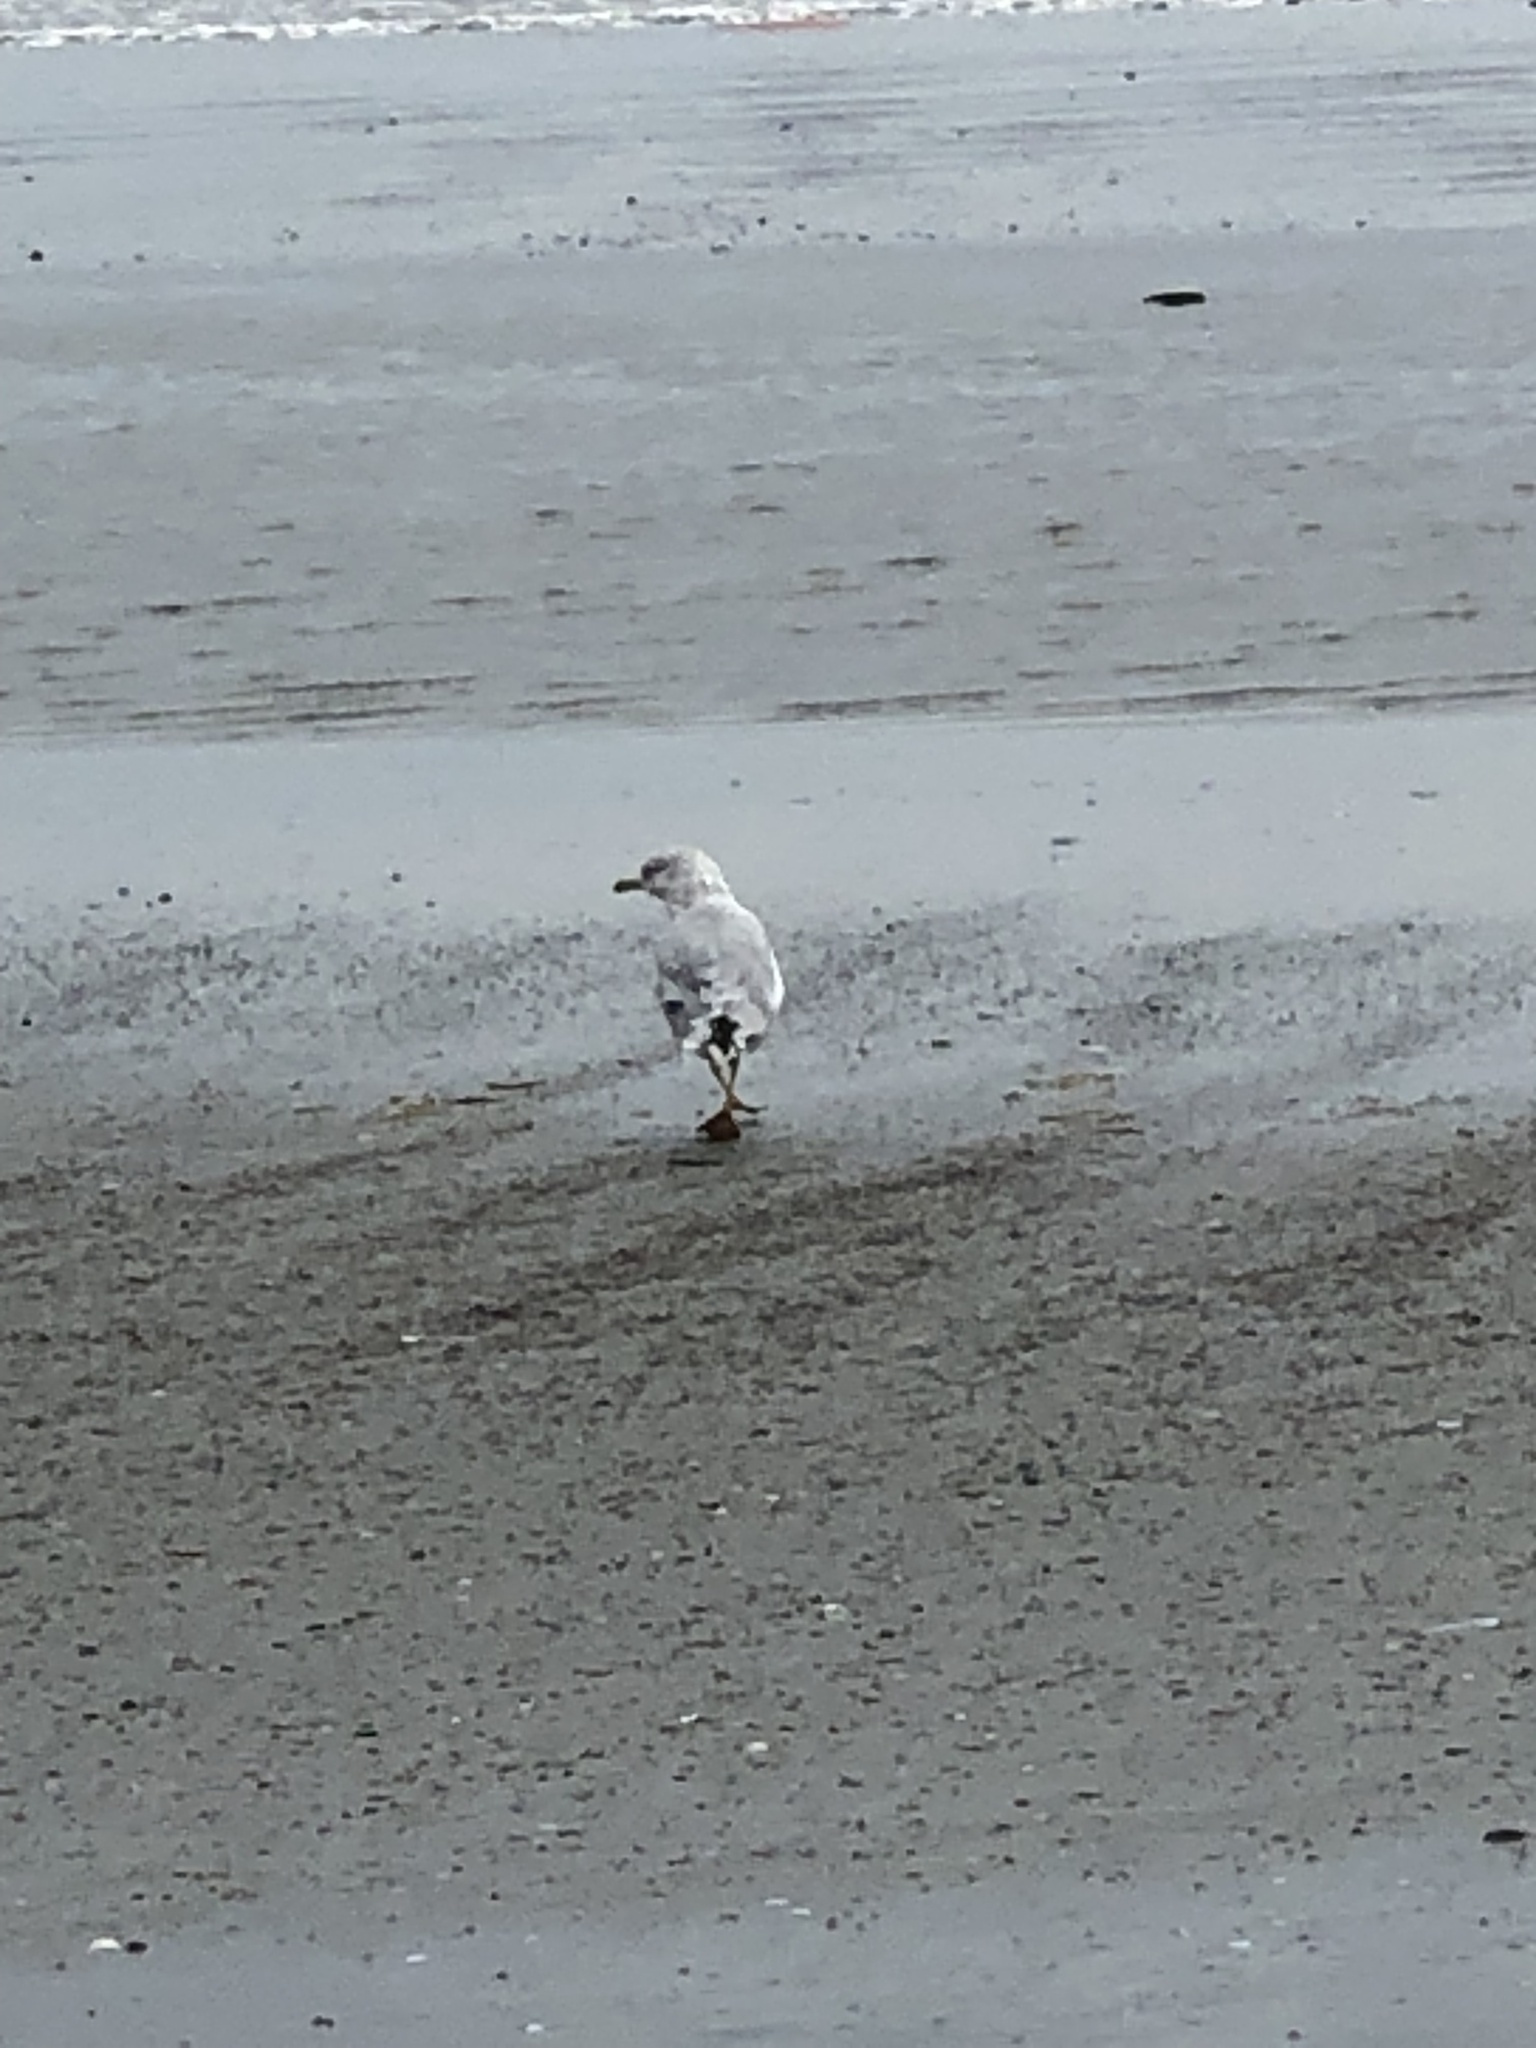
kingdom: Animalia
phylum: Chordata
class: Aves
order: Charadriiformes
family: Laridae
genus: Larus
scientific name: Larus delawarensis
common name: Ring-billed gull
